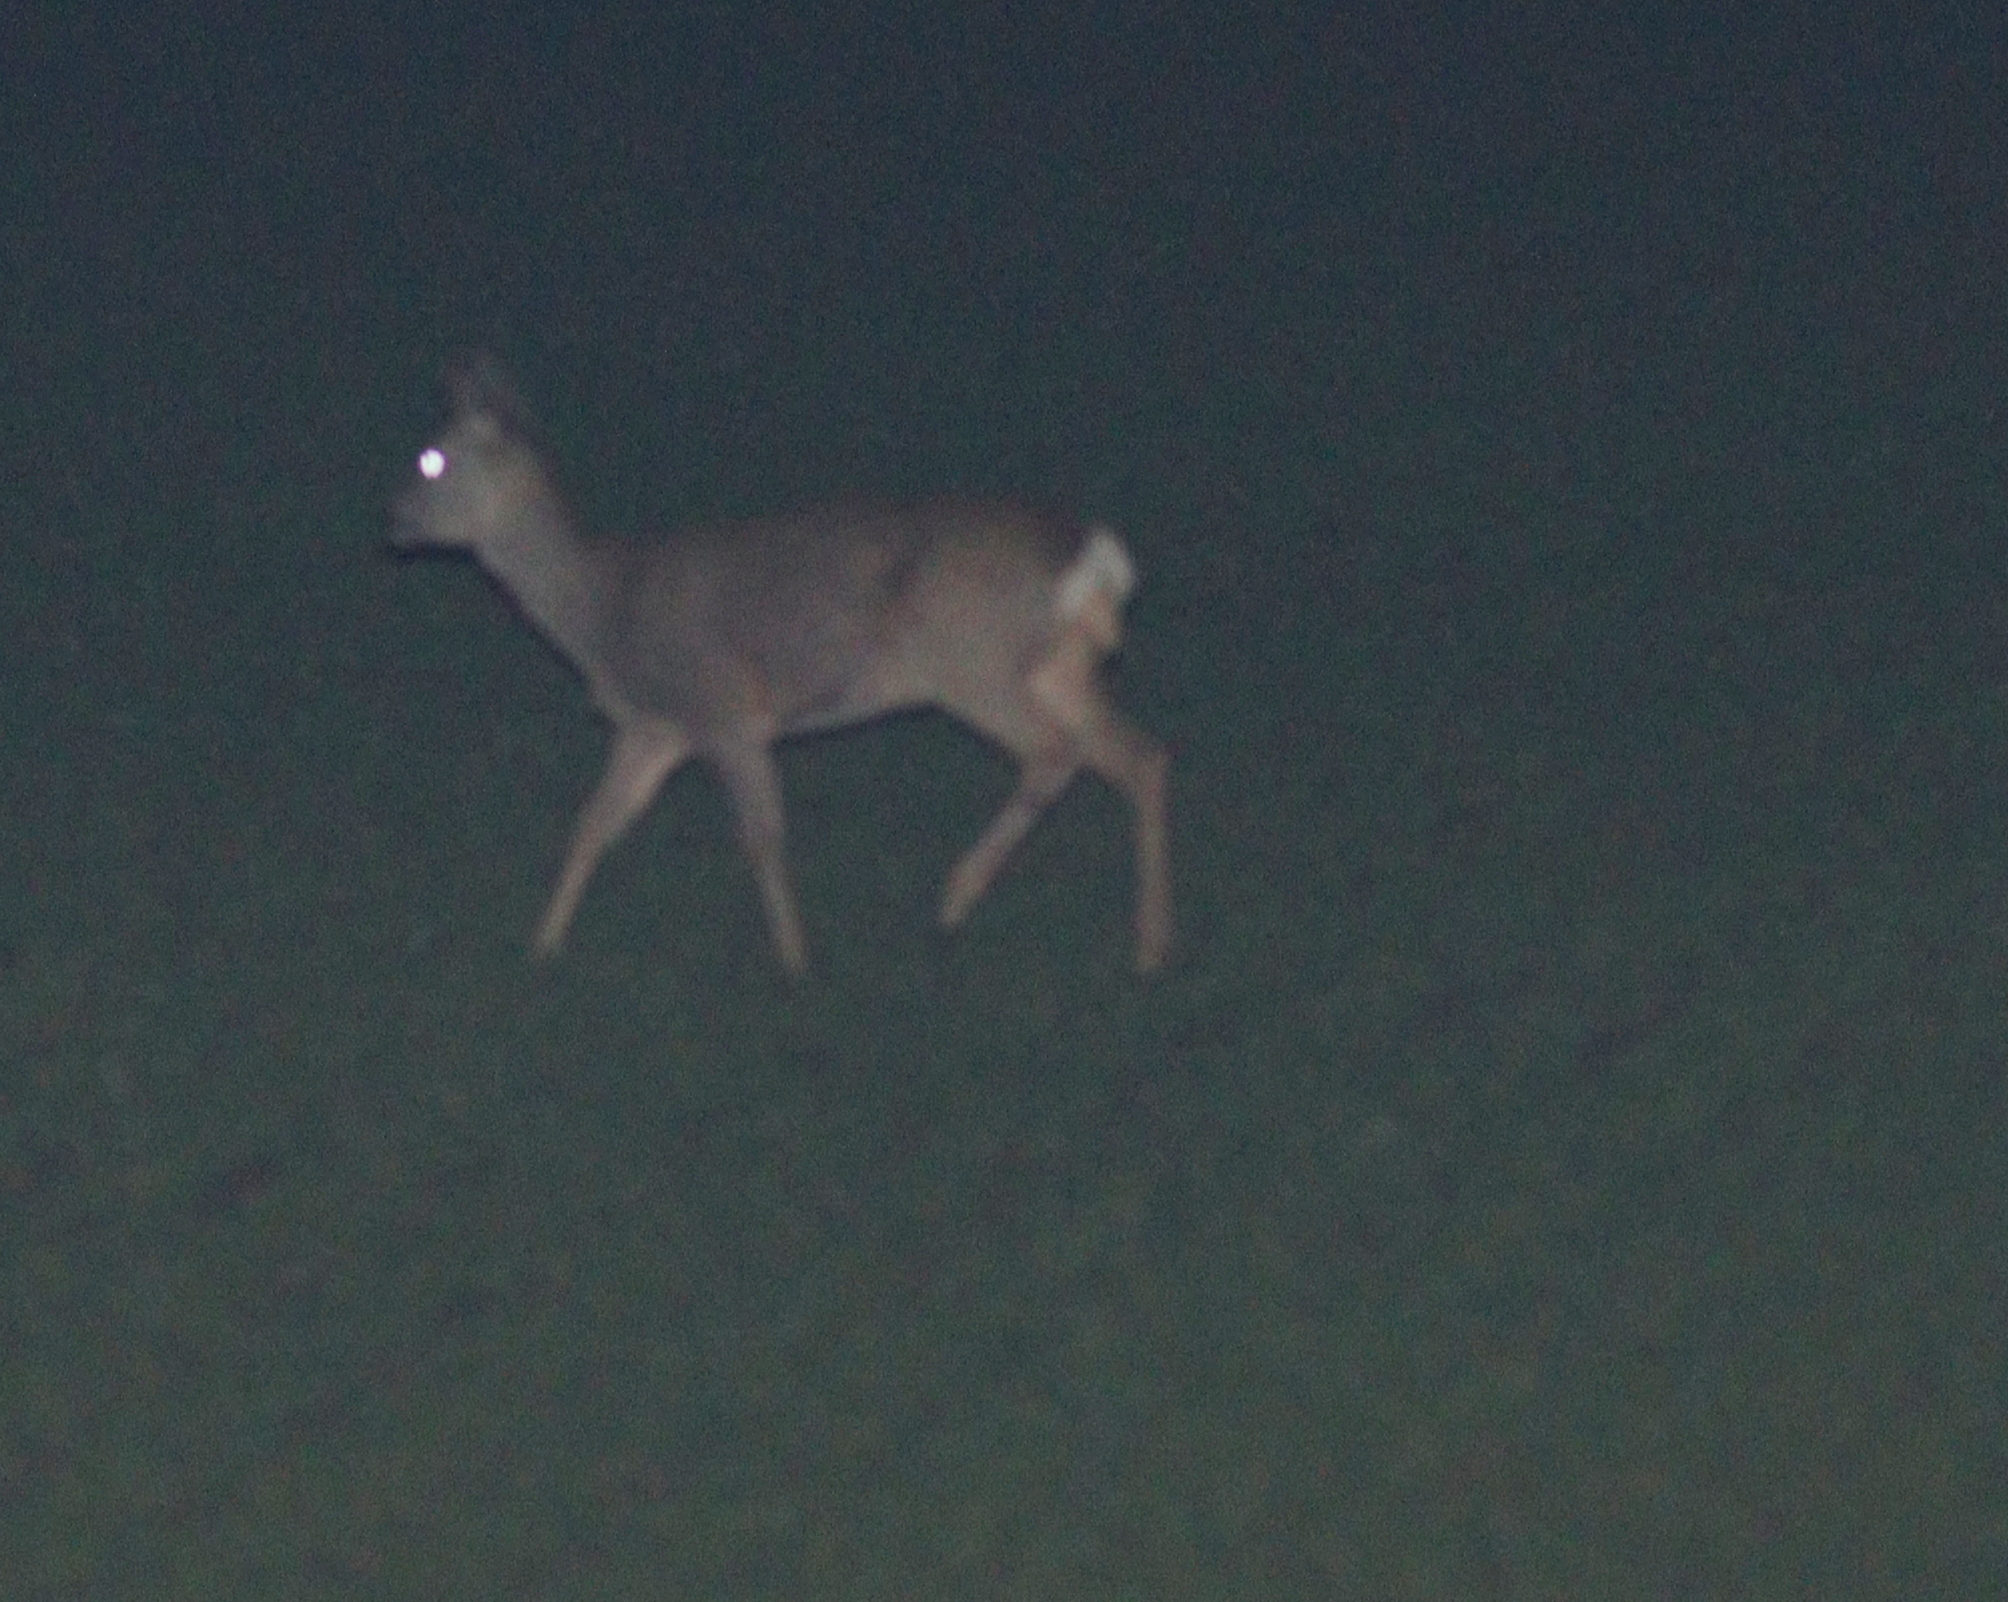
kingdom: Animalia
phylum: Chordata
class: Mammalia
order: Artiodactyla
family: Cervidae
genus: Capreolus
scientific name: Capreolus capreolus
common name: Western roe deer
